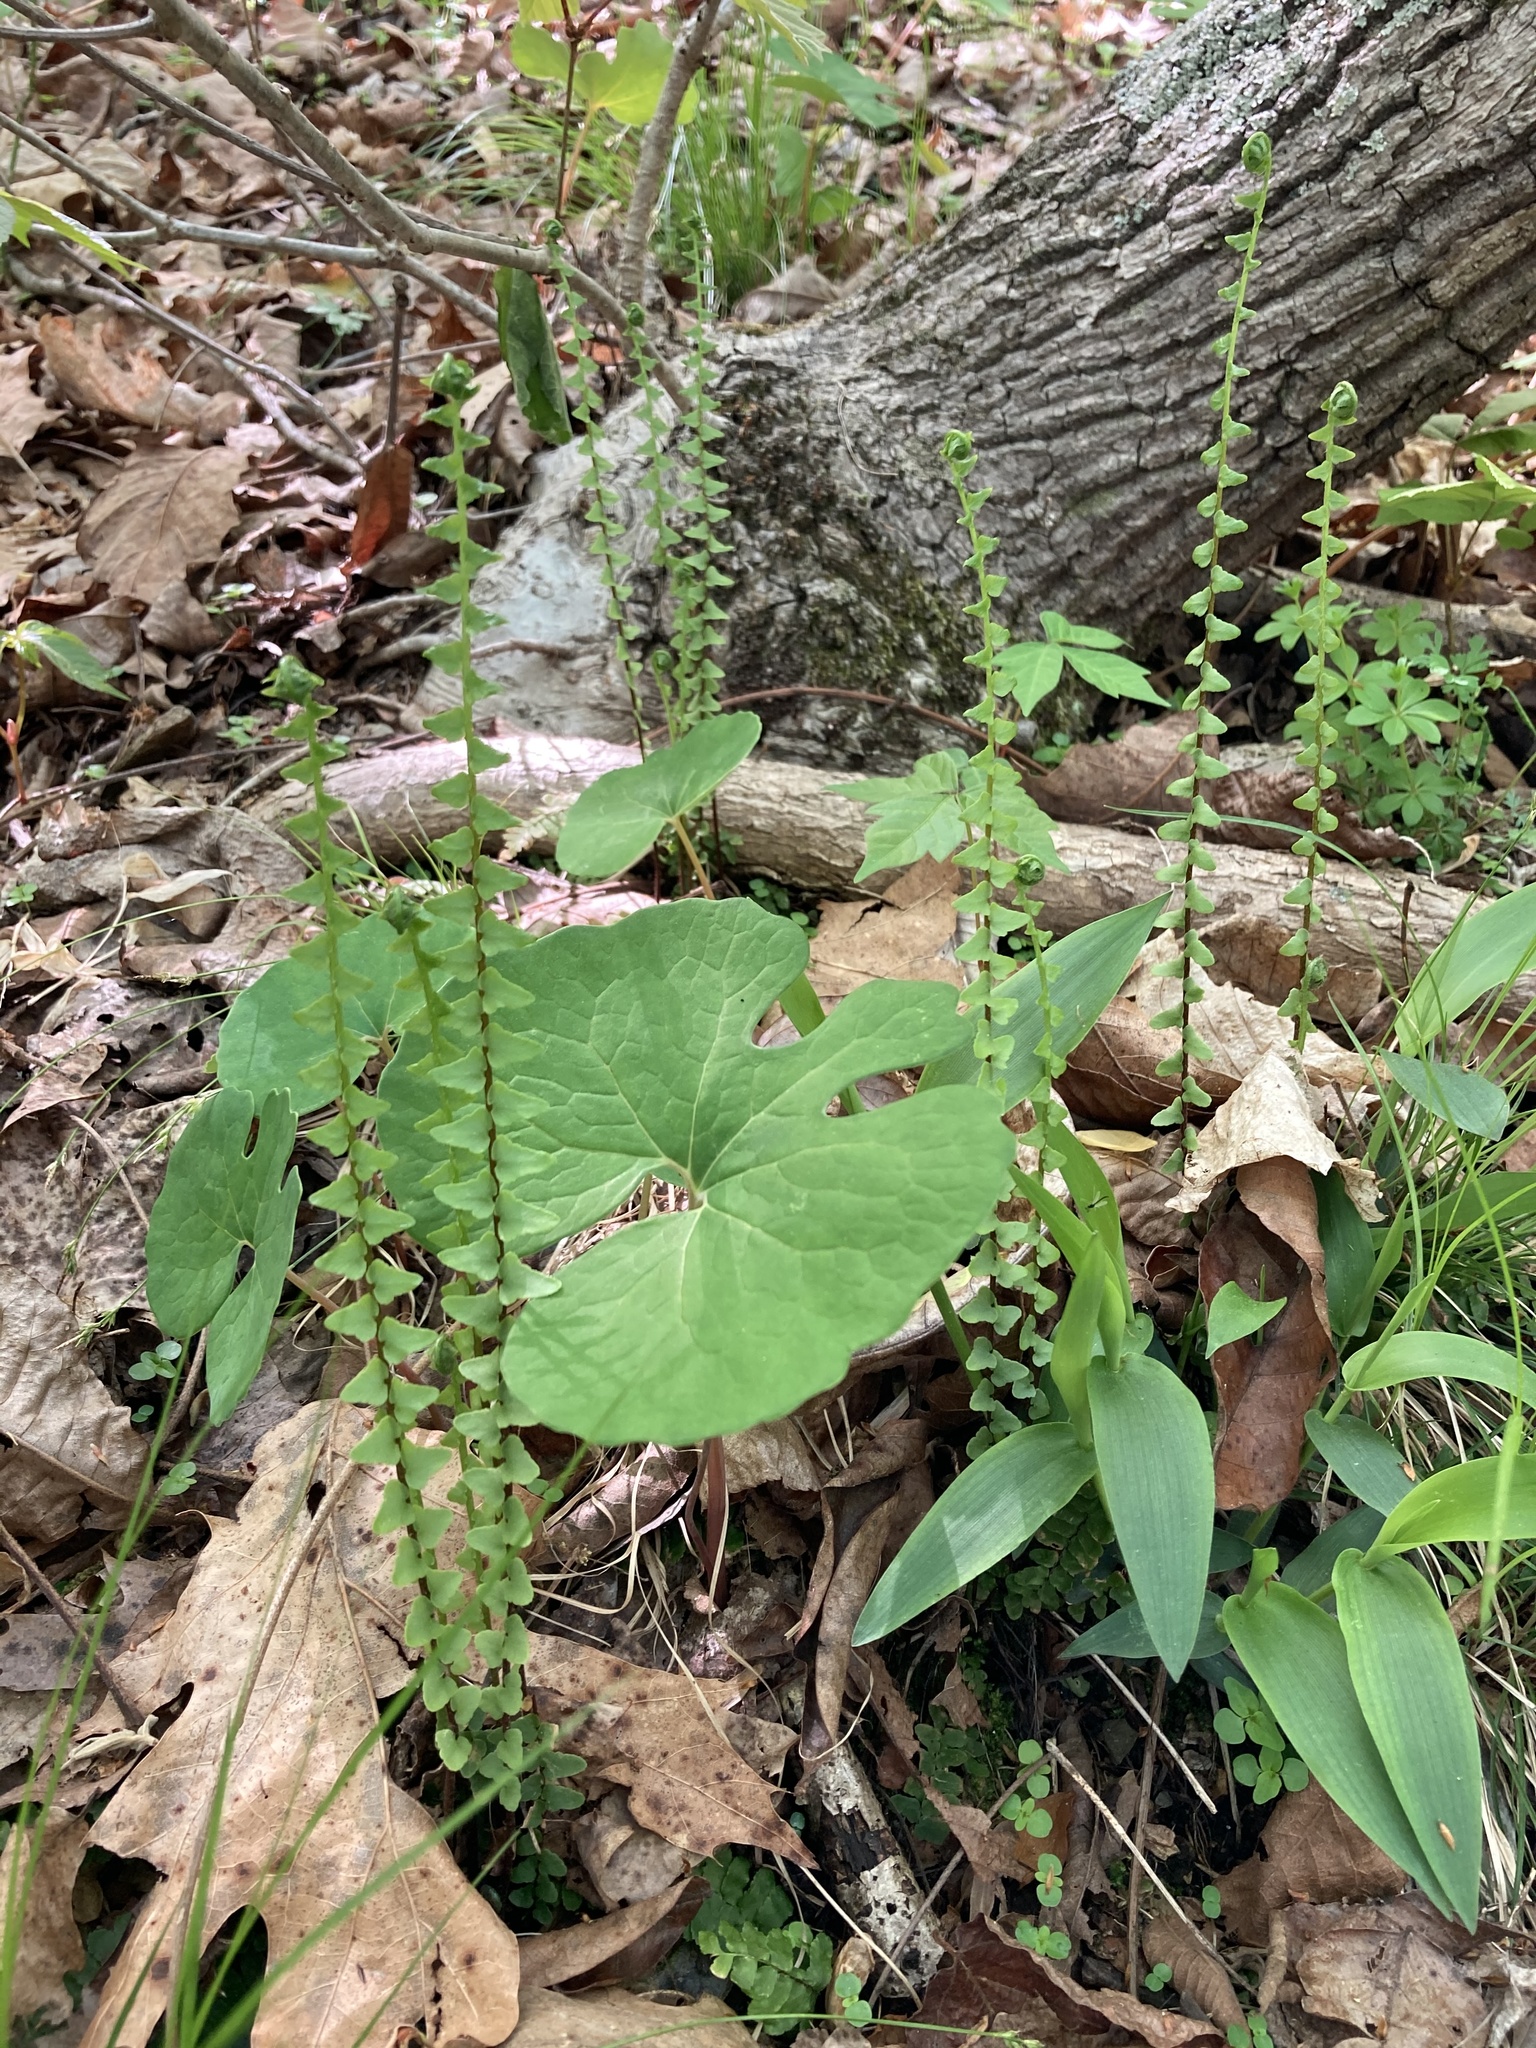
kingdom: Plantae
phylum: Tracheophyta
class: Polypodiopsida
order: Polypodiales
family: Aspleniaceae
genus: Asplenium
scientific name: Asplenium platyneuron
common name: Ebony spleenwort
